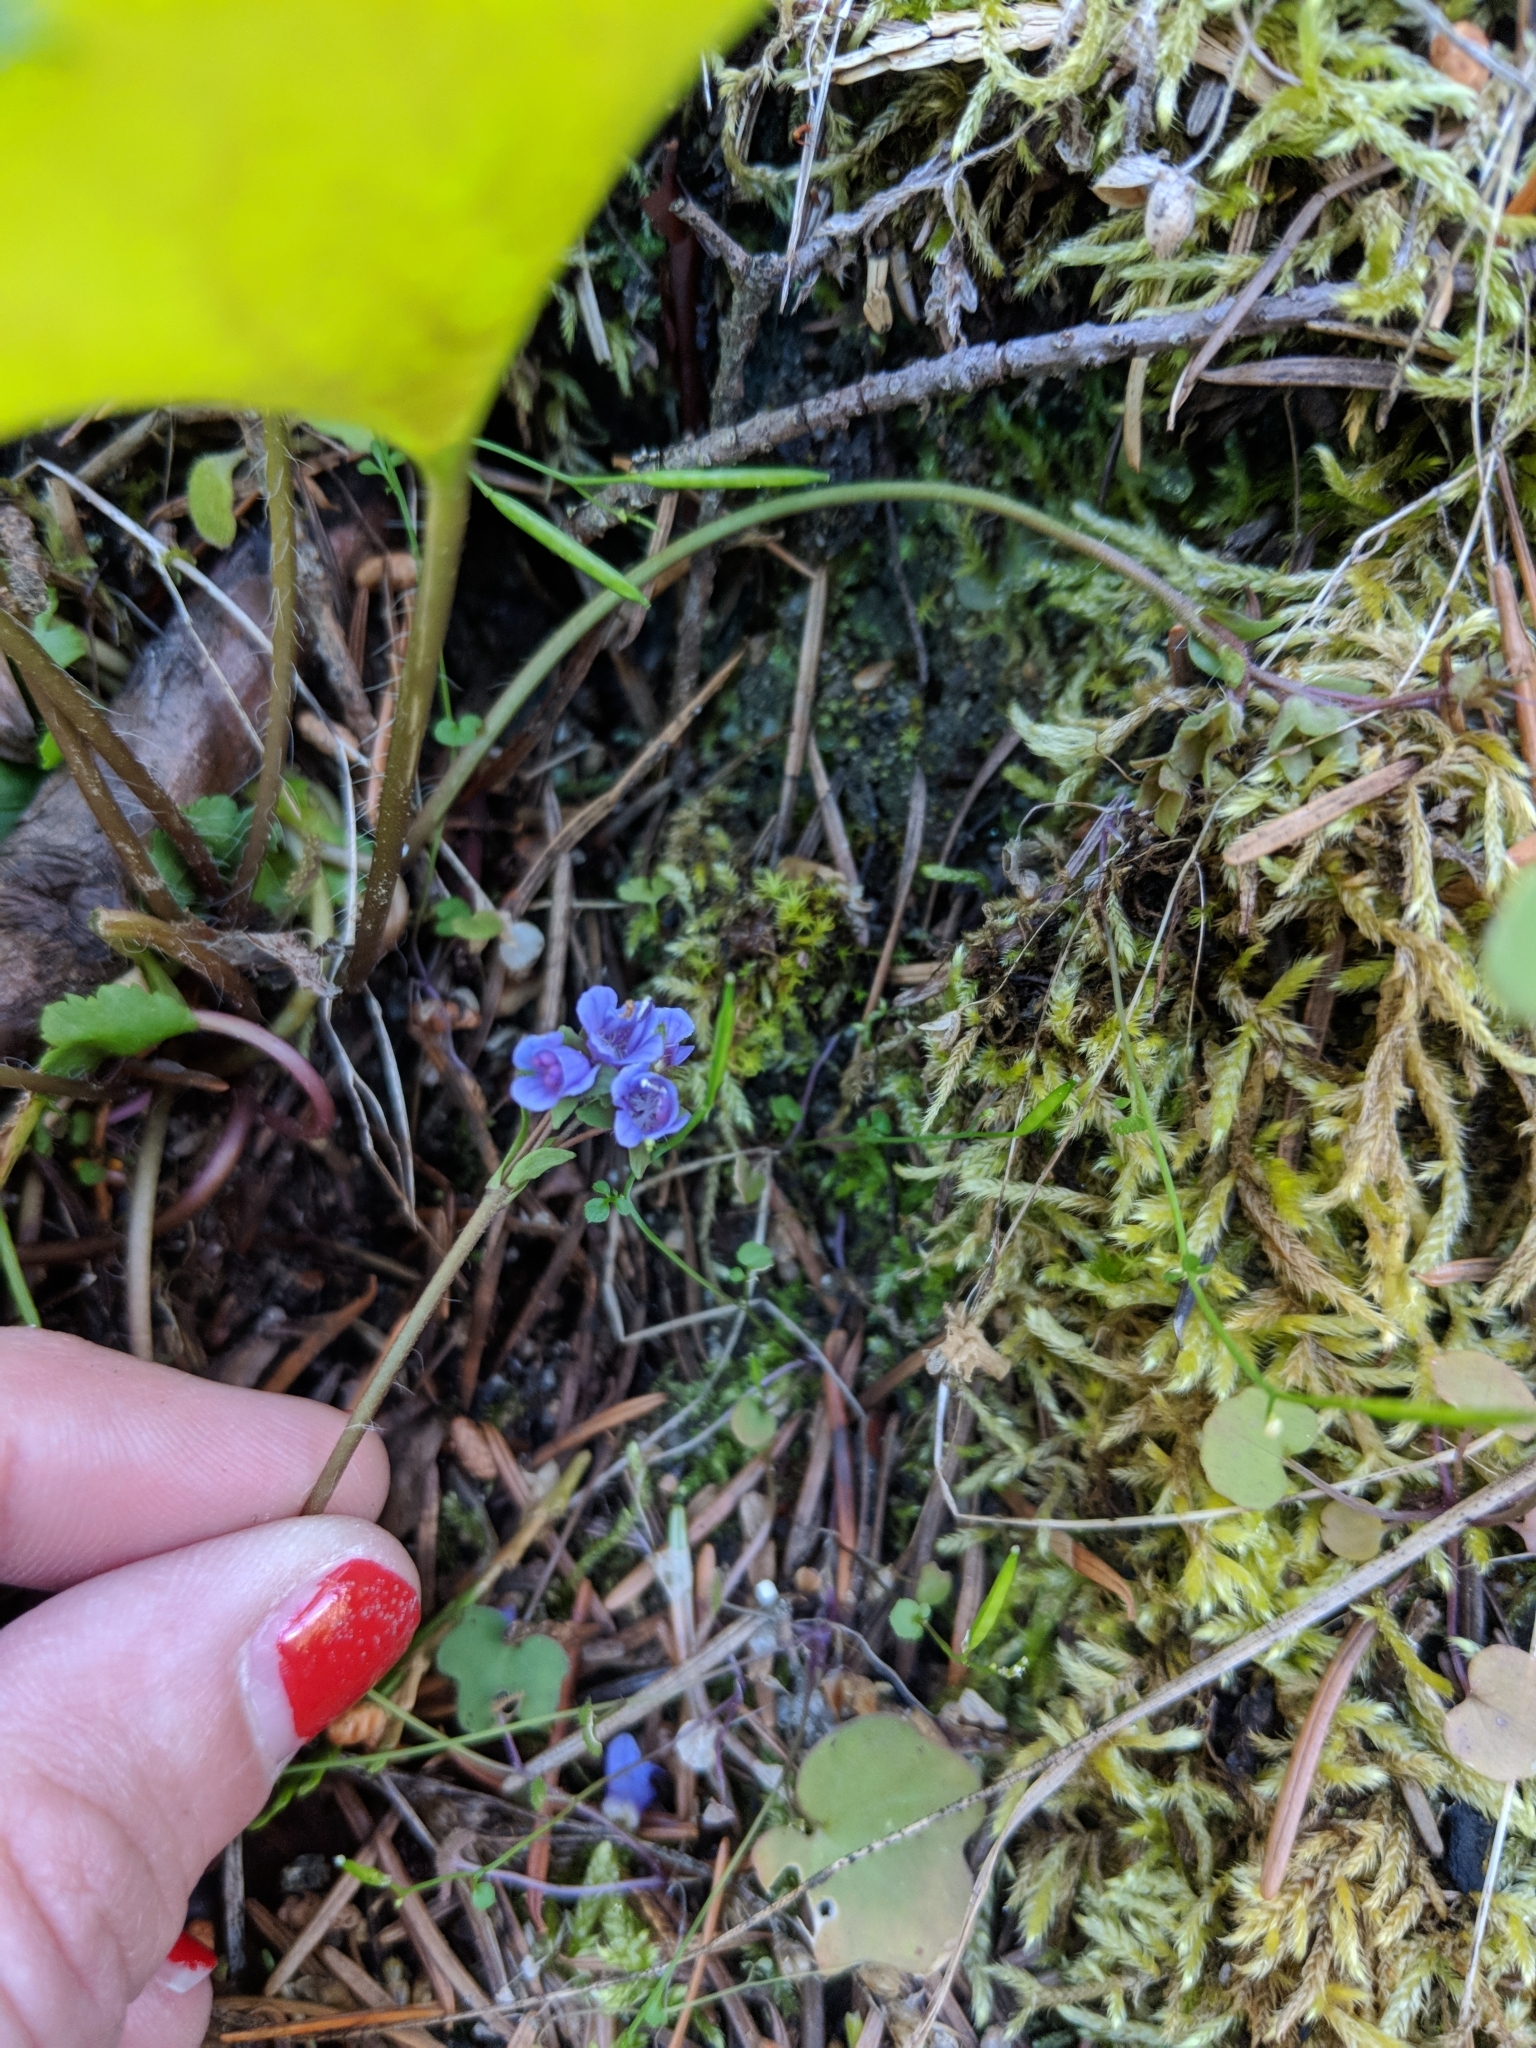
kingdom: Plantae
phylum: Tracheophyta
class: Magnoliopsida
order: Lamiales
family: Plantaginaceae
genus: Synthyris
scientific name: Synthyris reniformis
